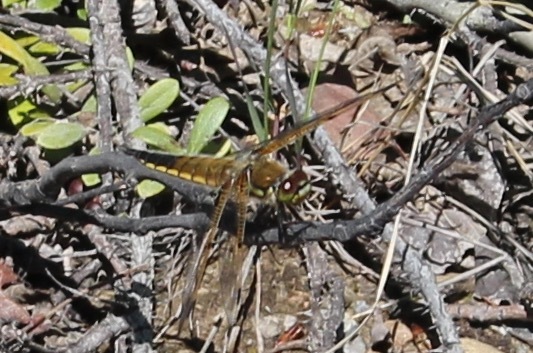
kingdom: Animalia
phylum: Arthropoda
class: Insecta
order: Odonata
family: Libellulidae
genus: Libellula
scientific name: Libellula quadrimaculata
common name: Four-spotted chaser
